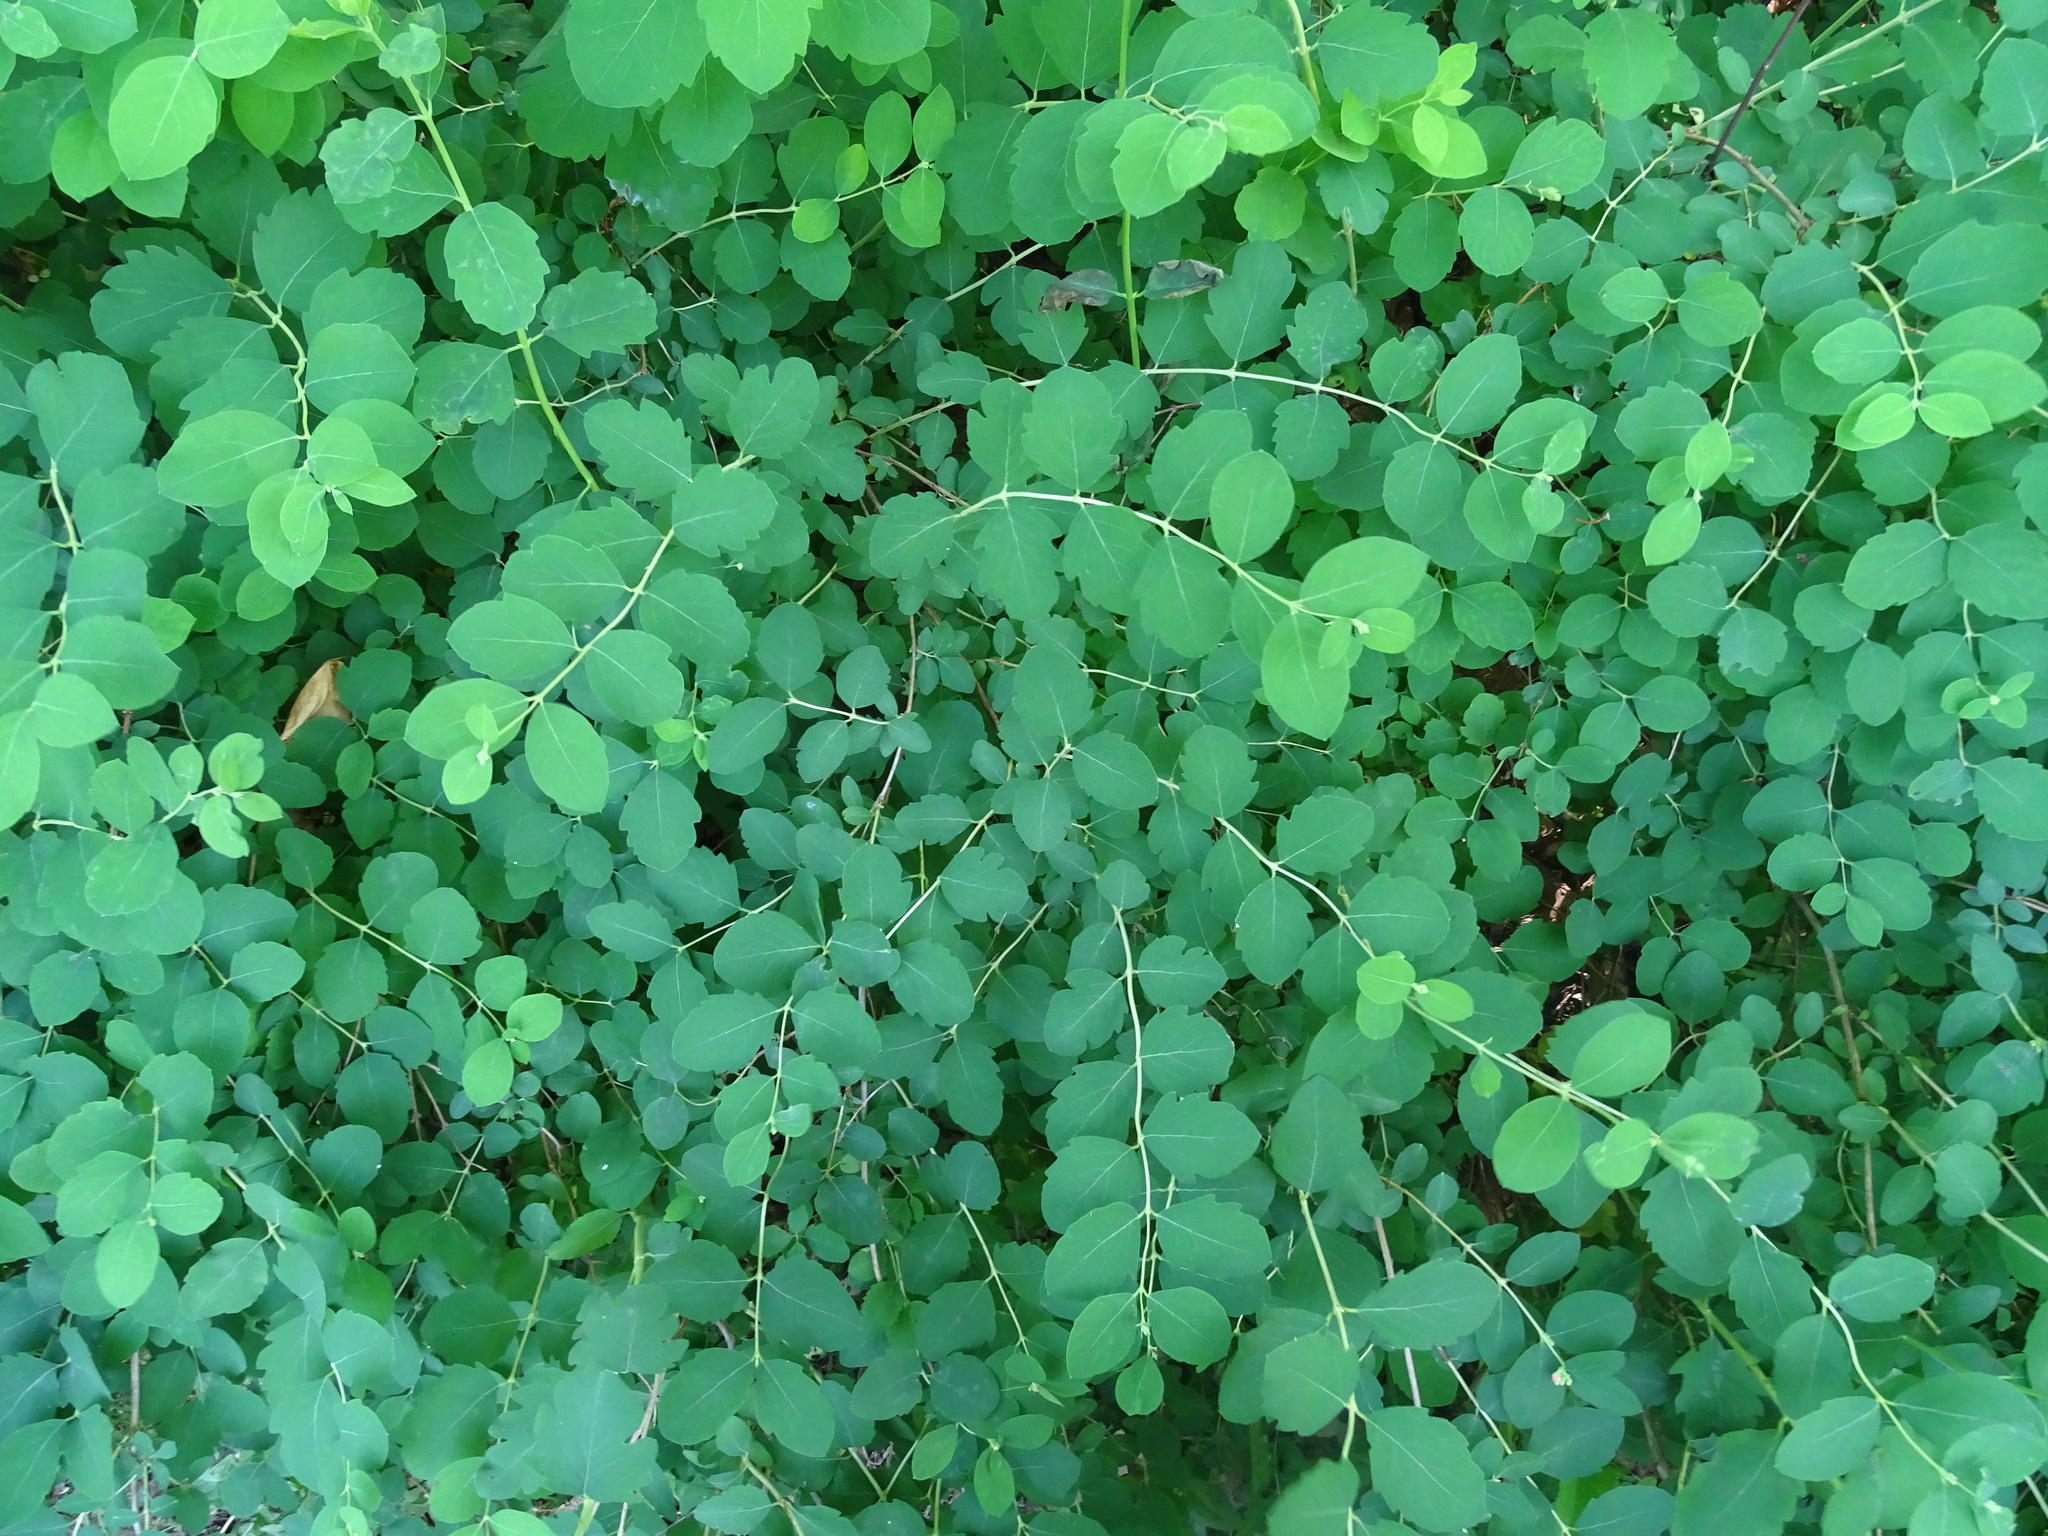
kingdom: Plantae
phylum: Tracheophyta
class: Magnoliopsida
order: Dipsacales
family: Caprifoliaceae
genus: Symphoricarpos
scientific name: Symphoricarpos albus
